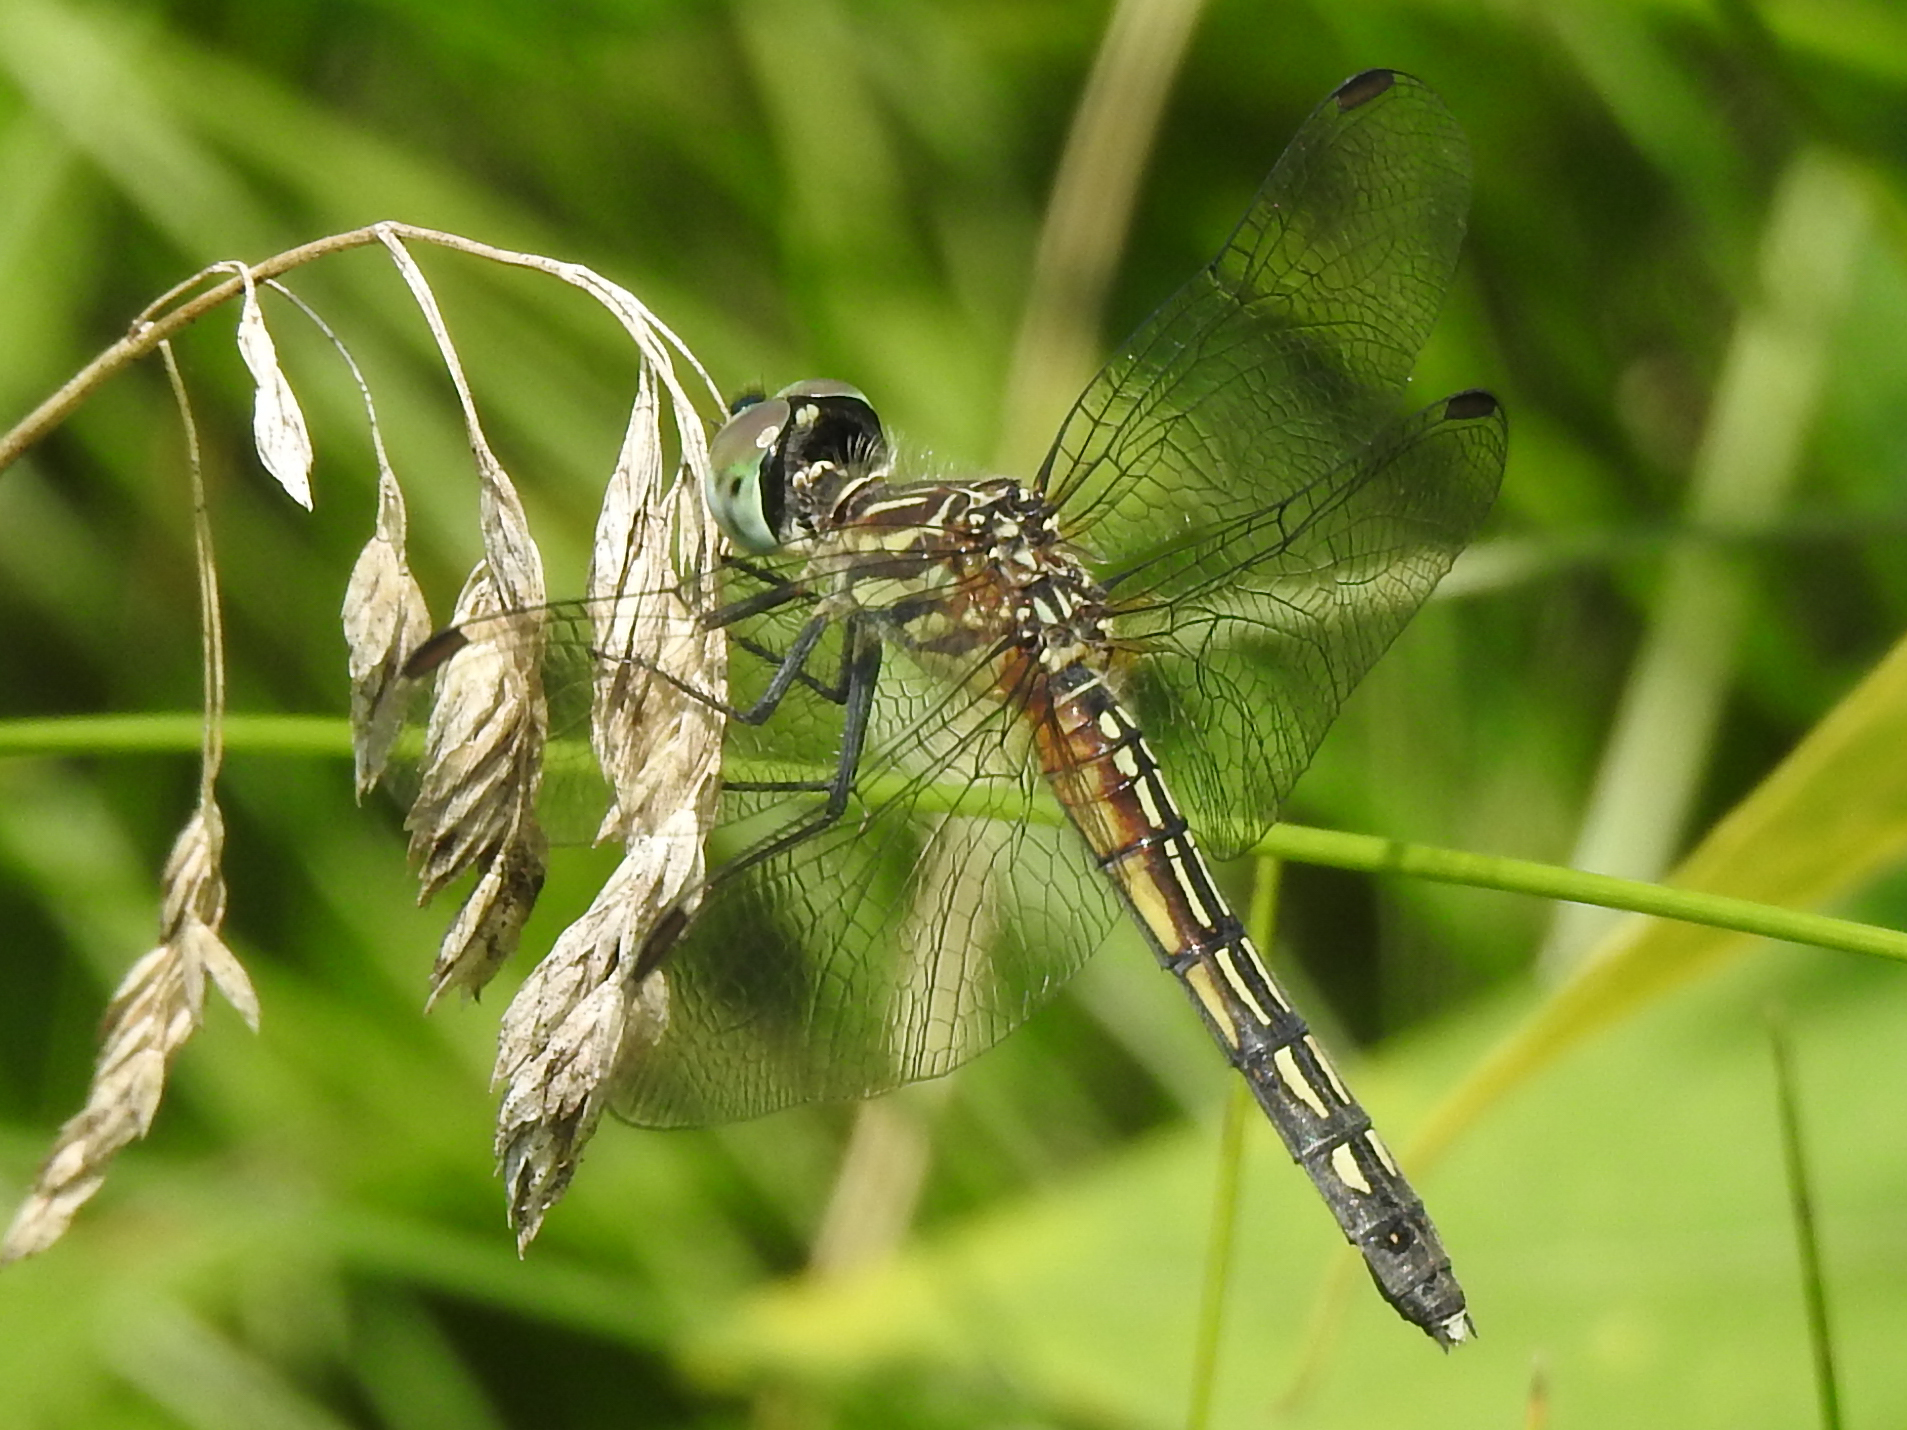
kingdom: Animalia
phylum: Arthropoda
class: Insecta
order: Odonata
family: Libellulidae
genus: Pachydiplax
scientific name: Pachydiplax longipennis
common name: Blue dasher
